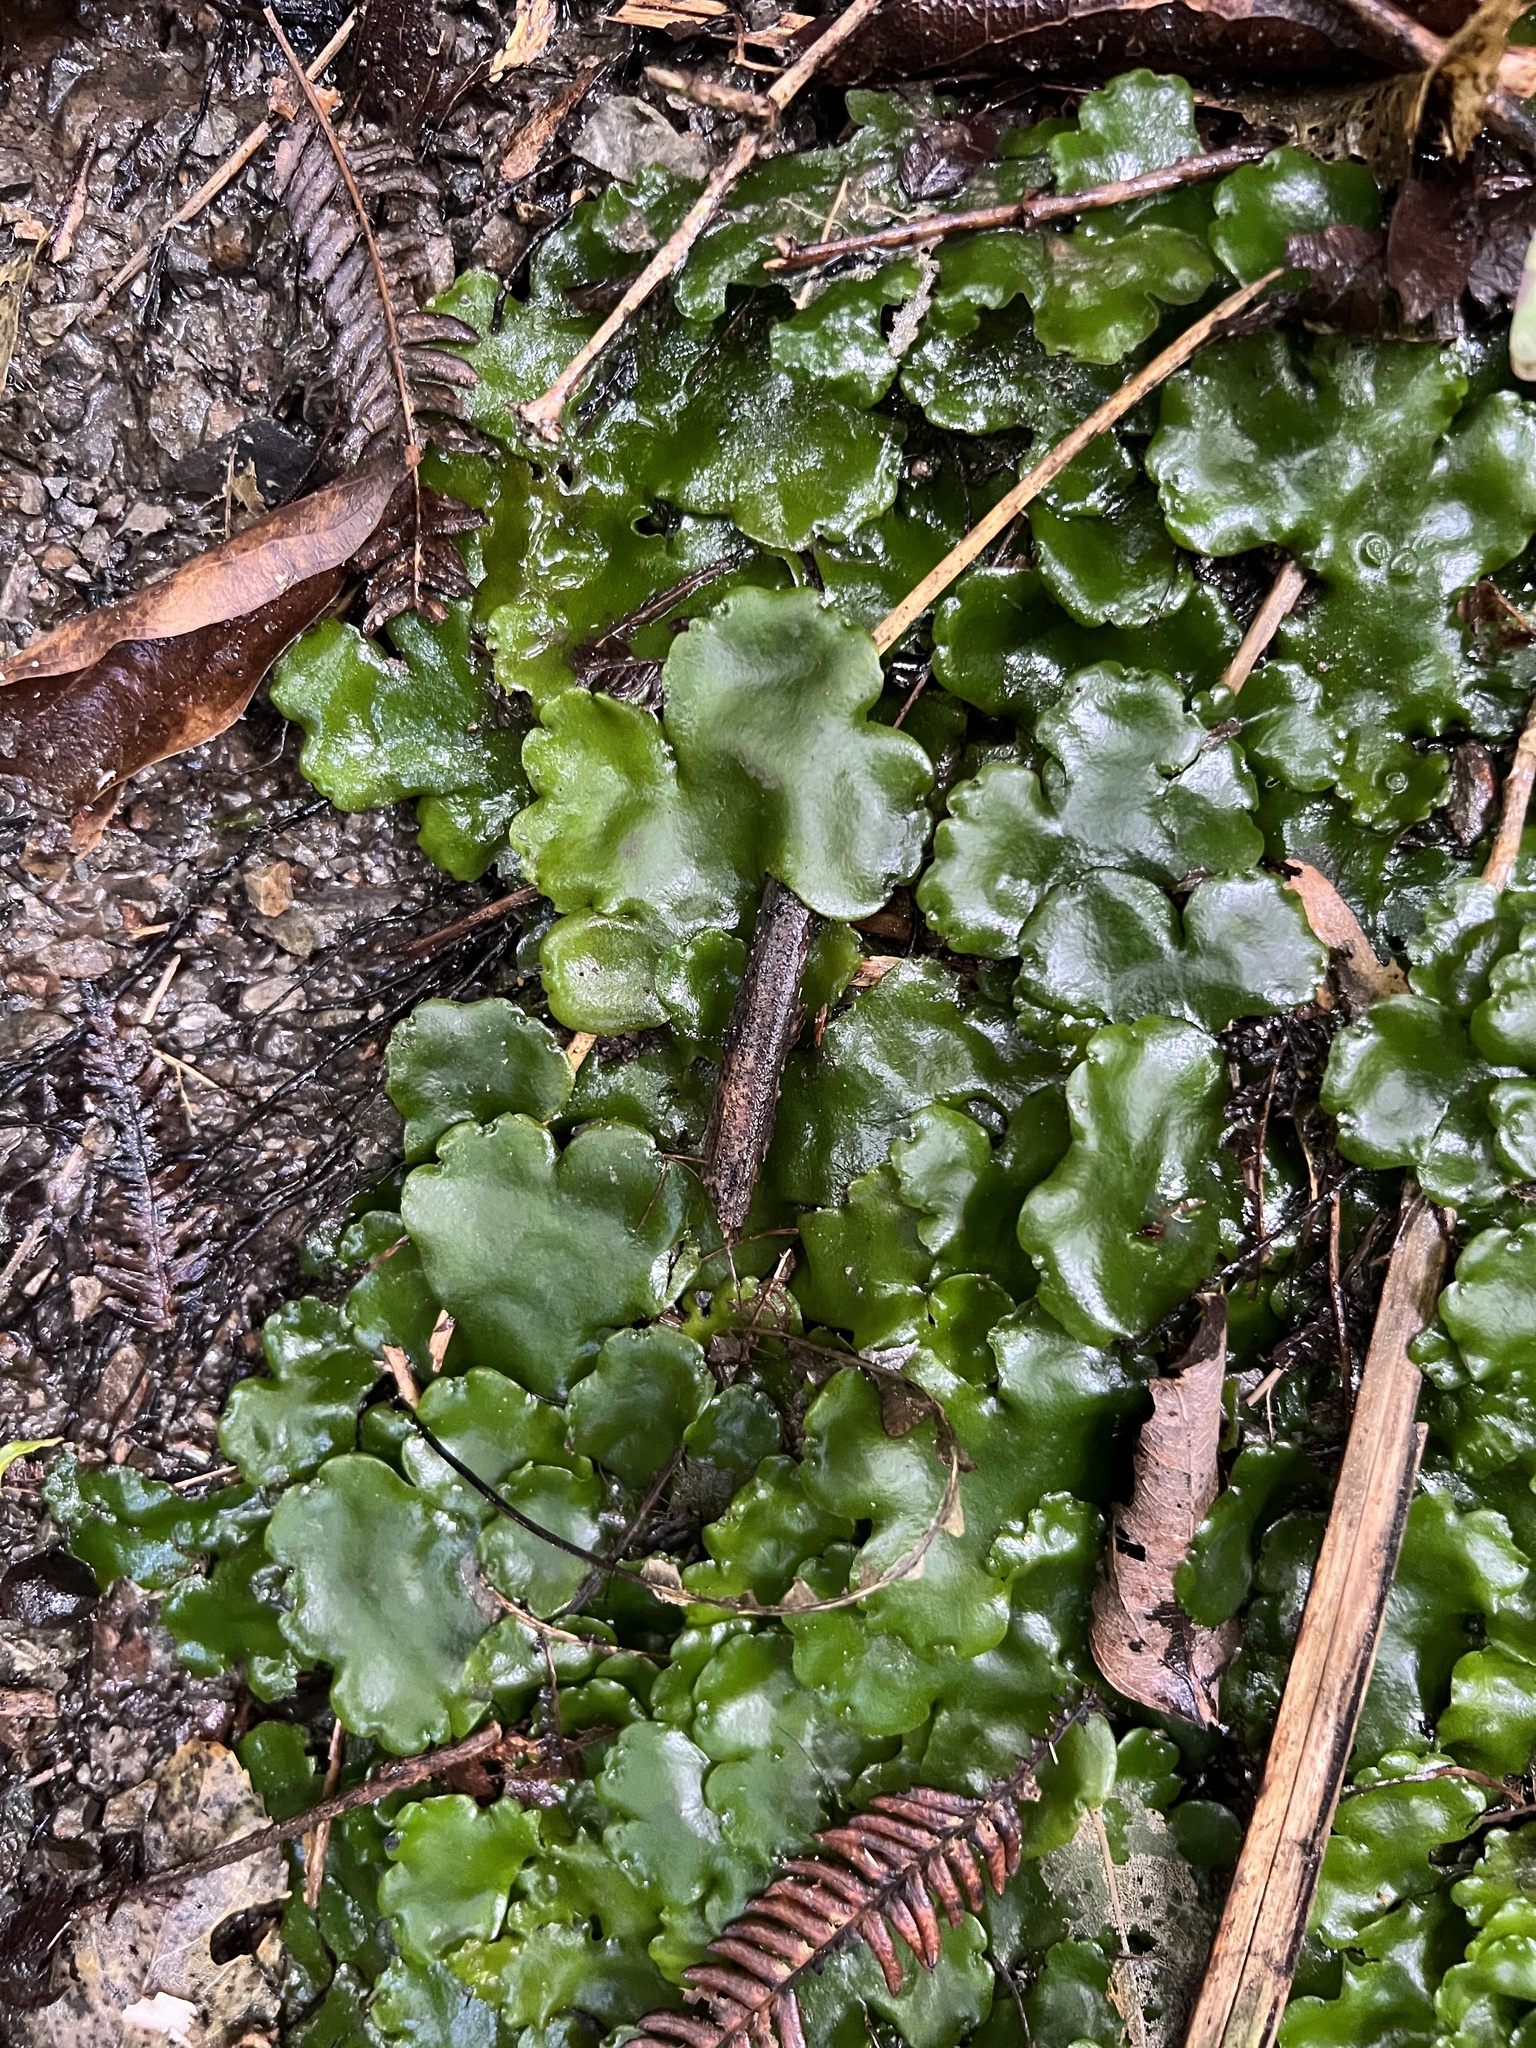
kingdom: Plantae
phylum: Marchantiophyta
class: Marchantiopsida
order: Marchantiales
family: Monocleaceae
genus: Monoclea
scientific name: Monoclea forsteri
